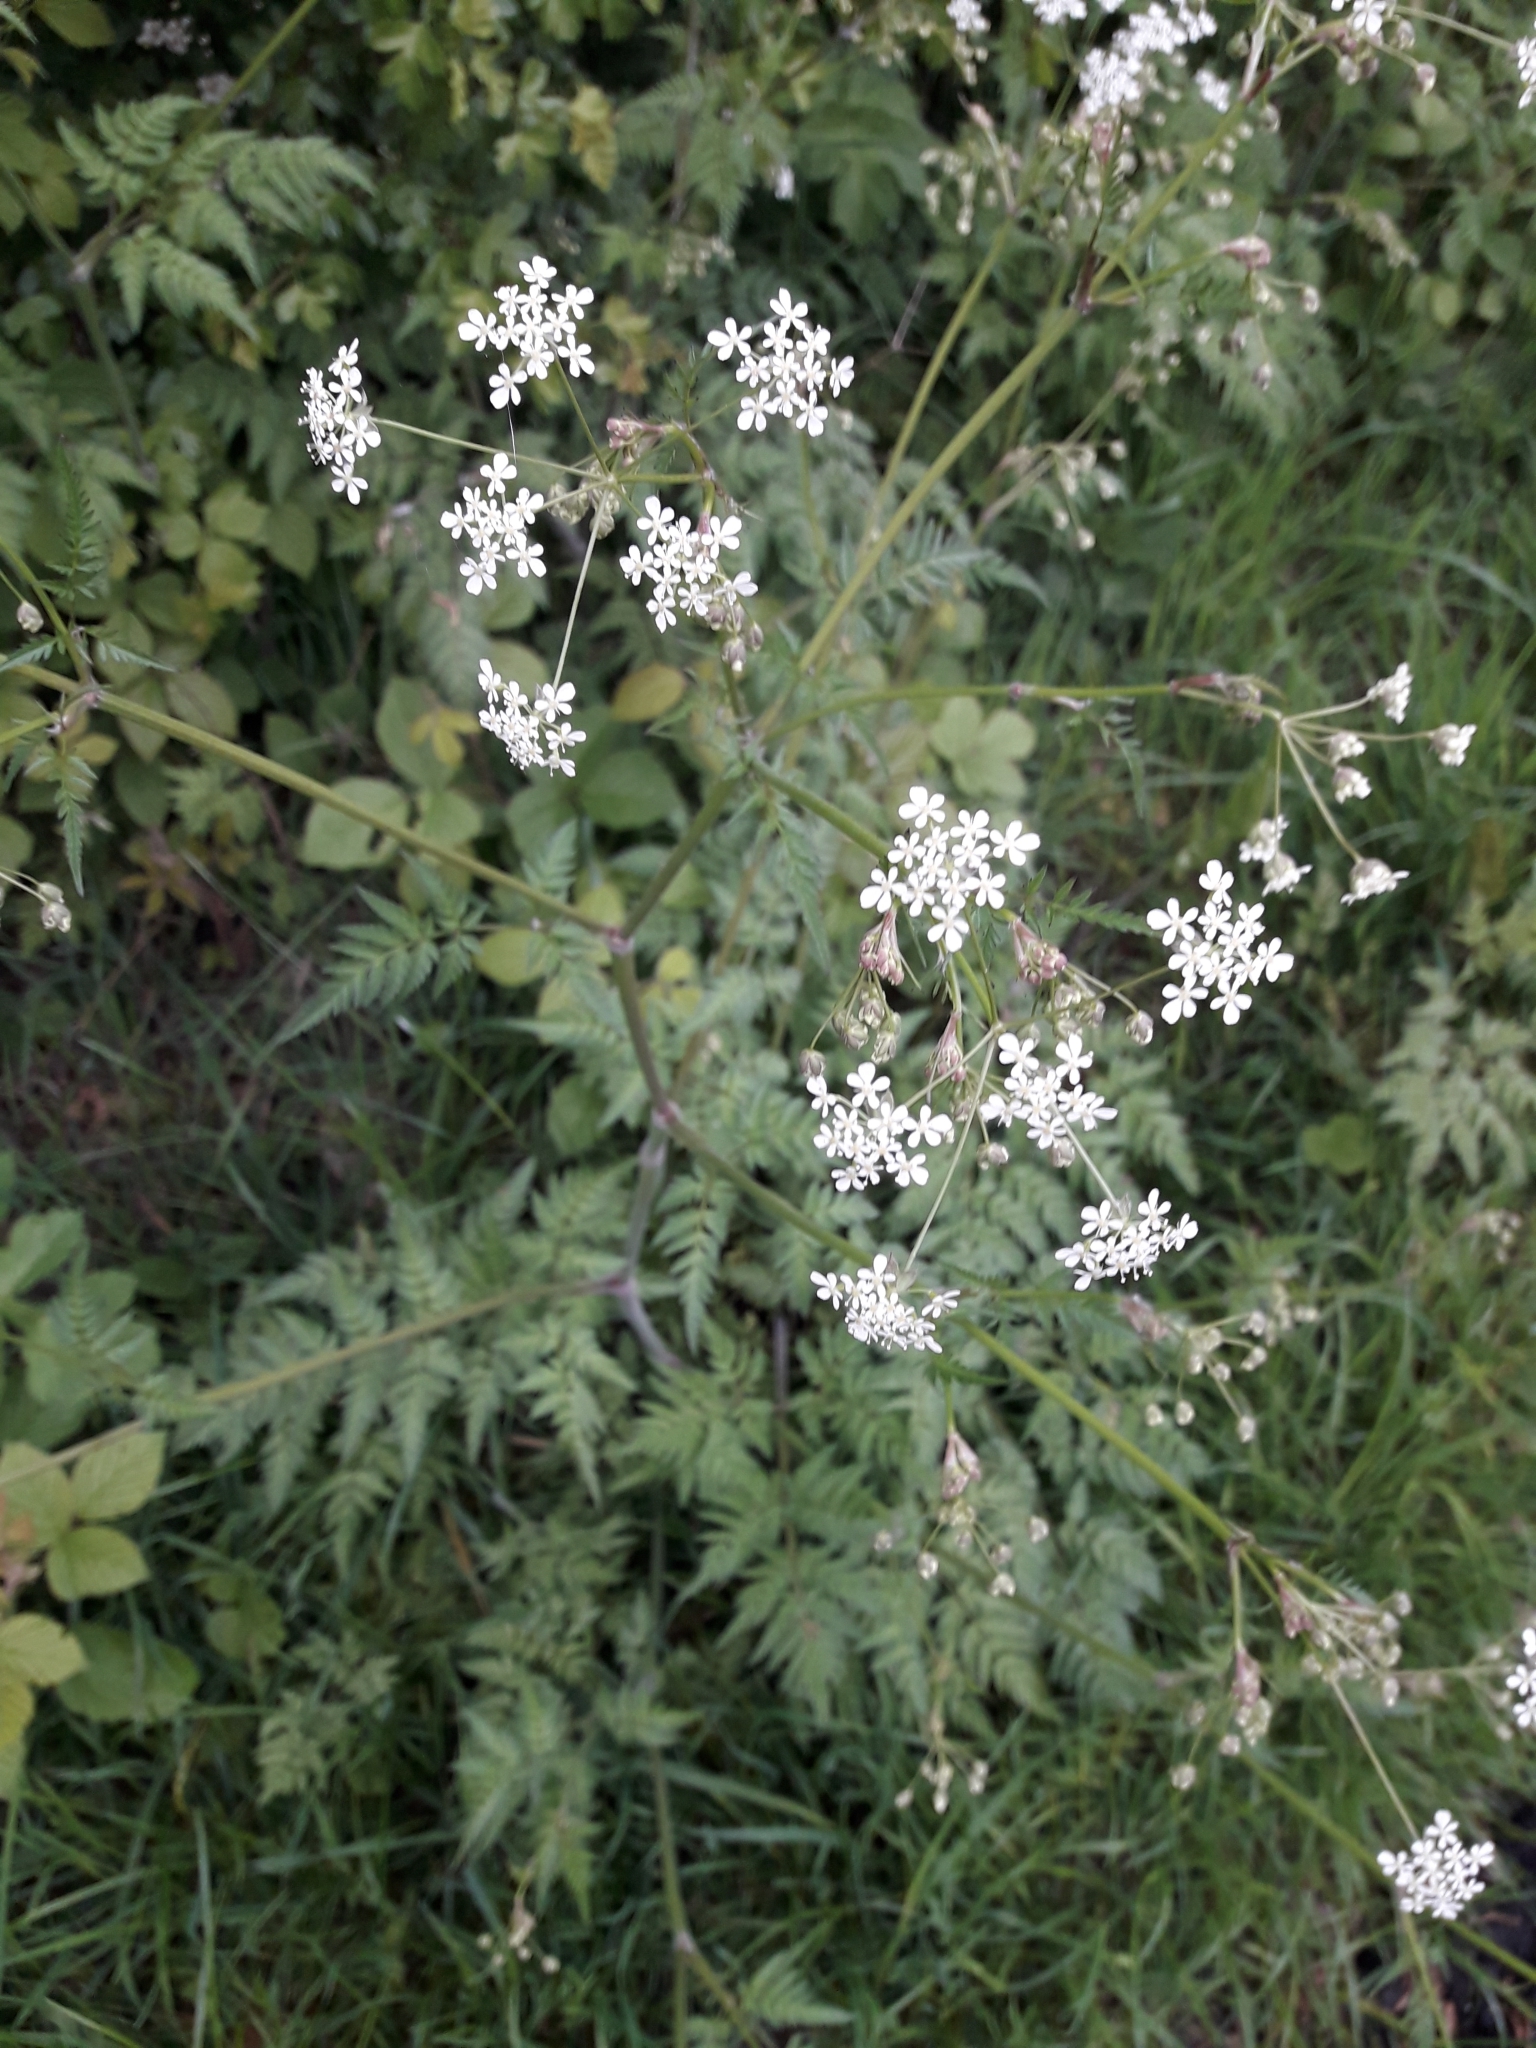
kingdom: Plantae
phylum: Tracheophyta
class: Magnoliopsida
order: Apiales
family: Apiaceae
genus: Anthriscus
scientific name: Anthriscus sylvestris
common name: Cow parsley
